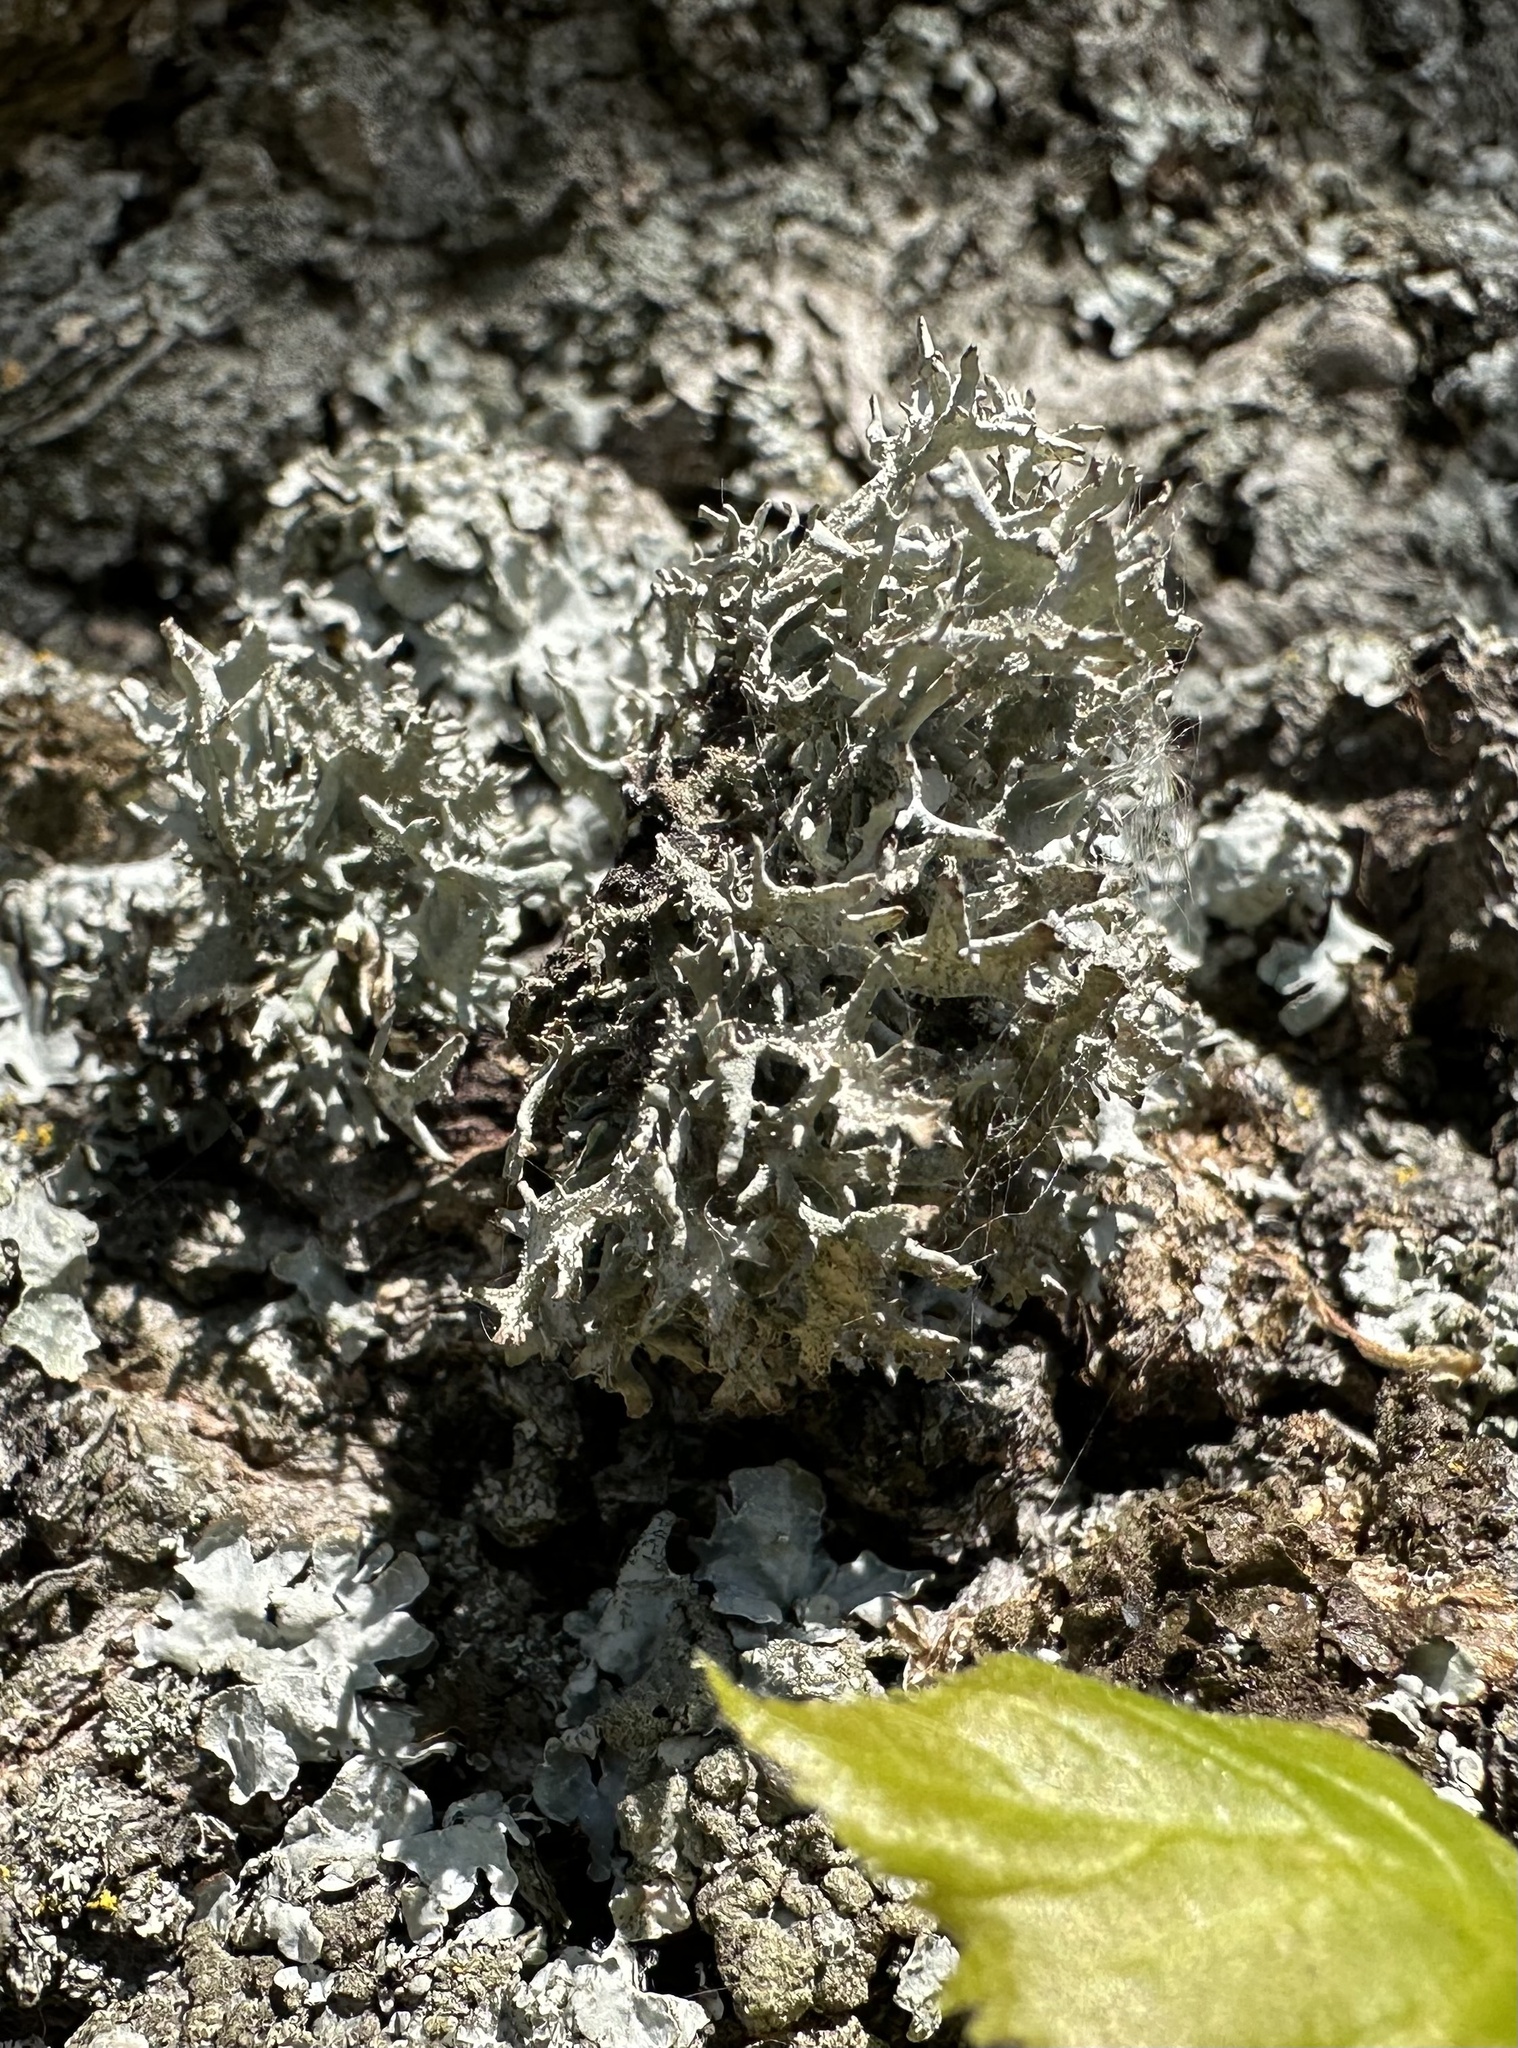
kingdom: Fungi
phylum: Ascomycota
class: Lecanoromycetes
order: Lecanorales
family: Parmeliaceae
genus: Pseudevernia
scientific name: Pseudevernia furfuracea
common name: Tree moss
